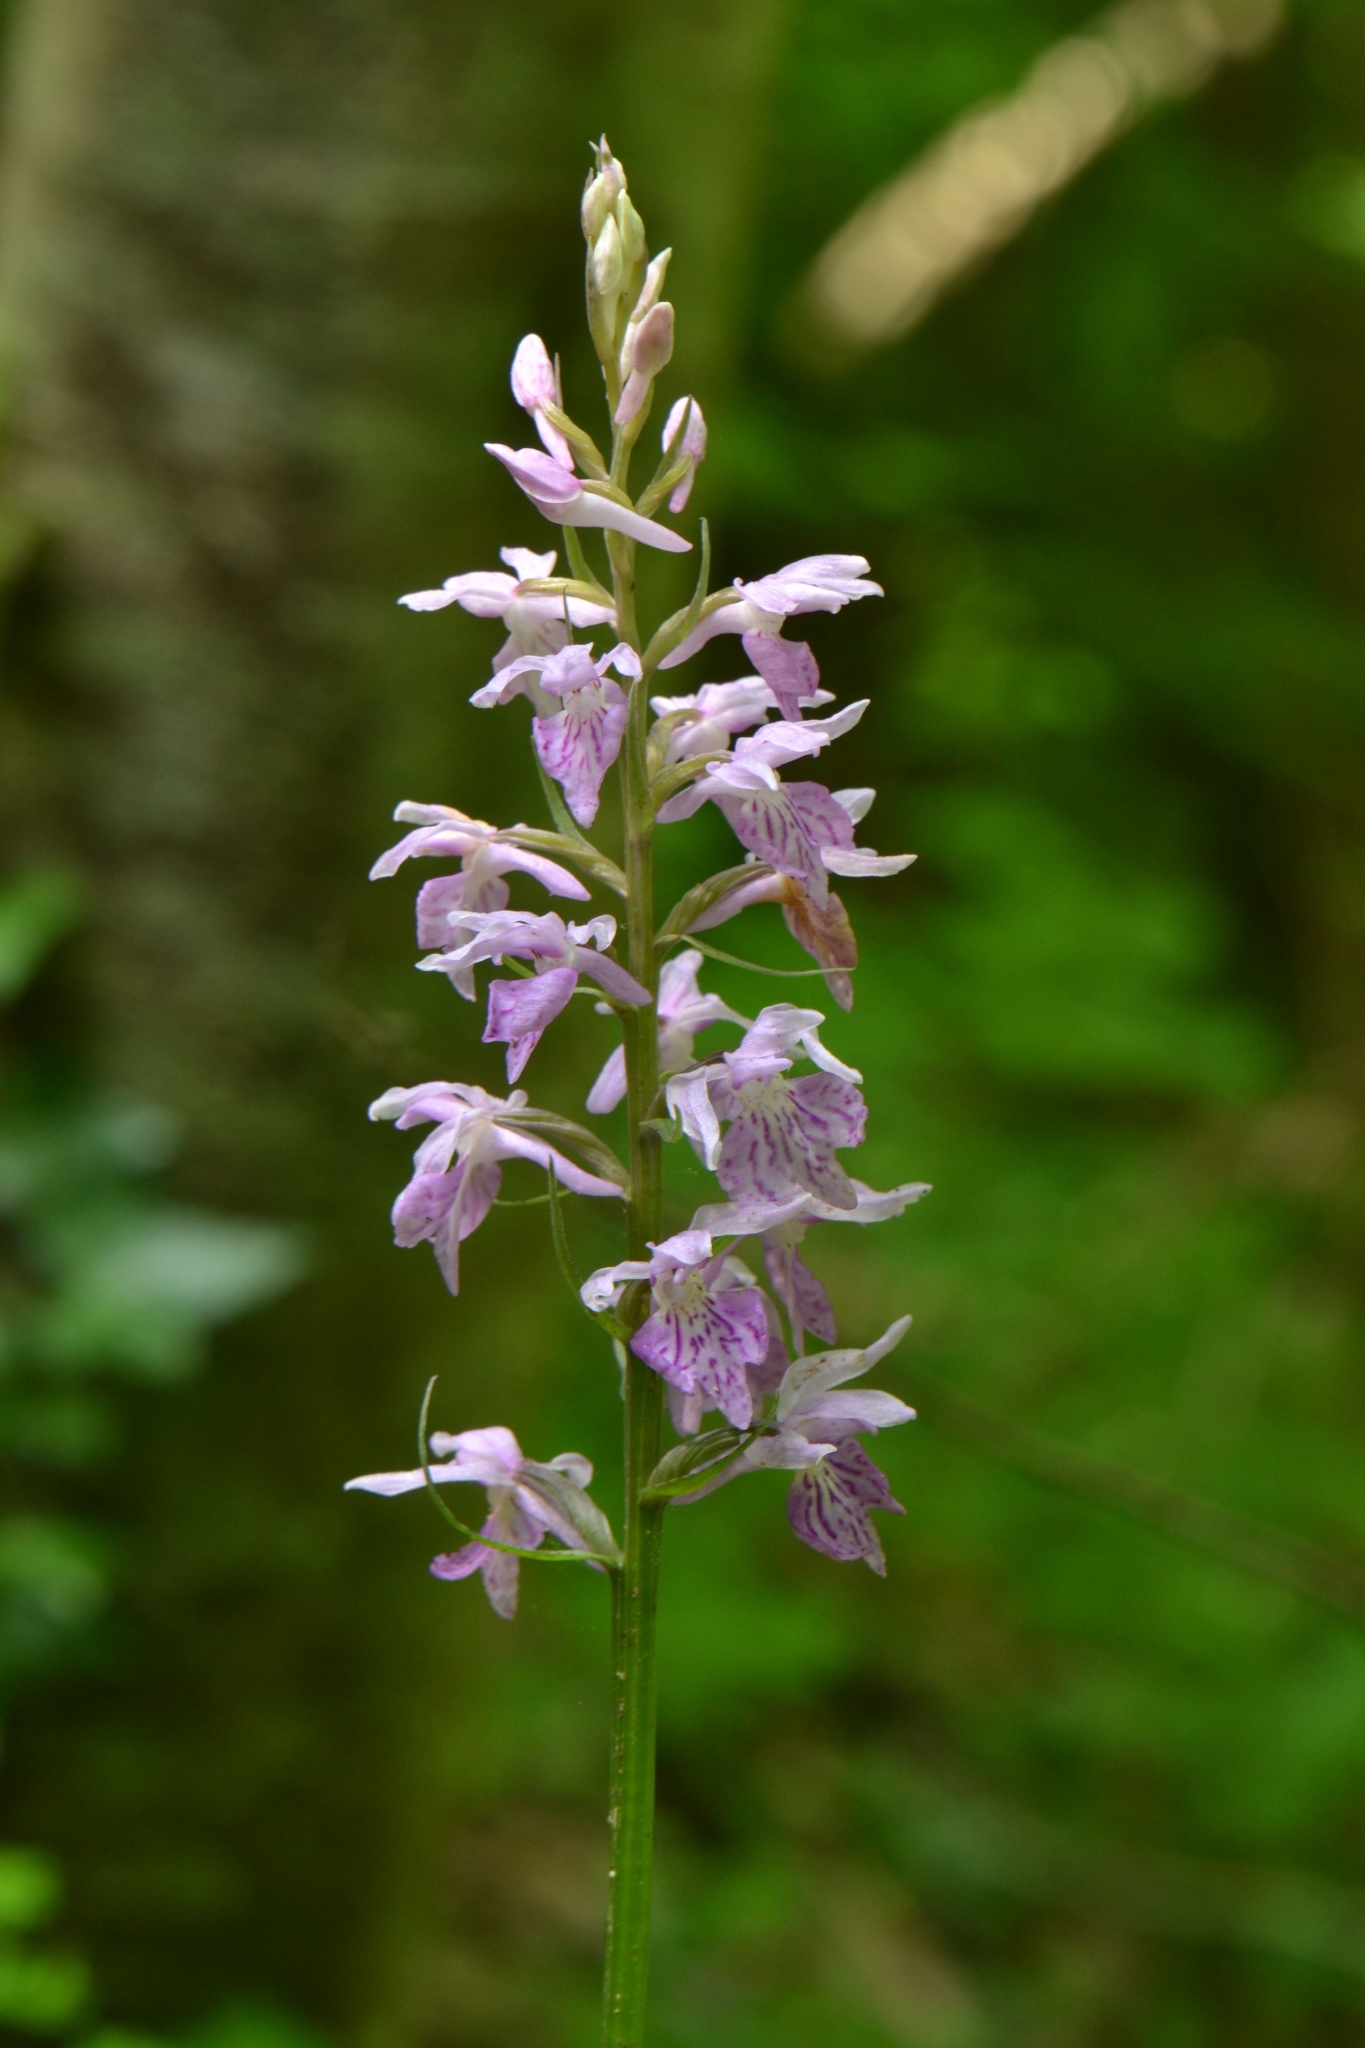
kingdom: Plantae
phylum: Tracheophyta
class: Liliopsida
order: Asparagales
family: Orchidaceae
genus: Dactylorhiza
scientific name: Dactylorhiza maculata
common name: Heath spotted-orchid
